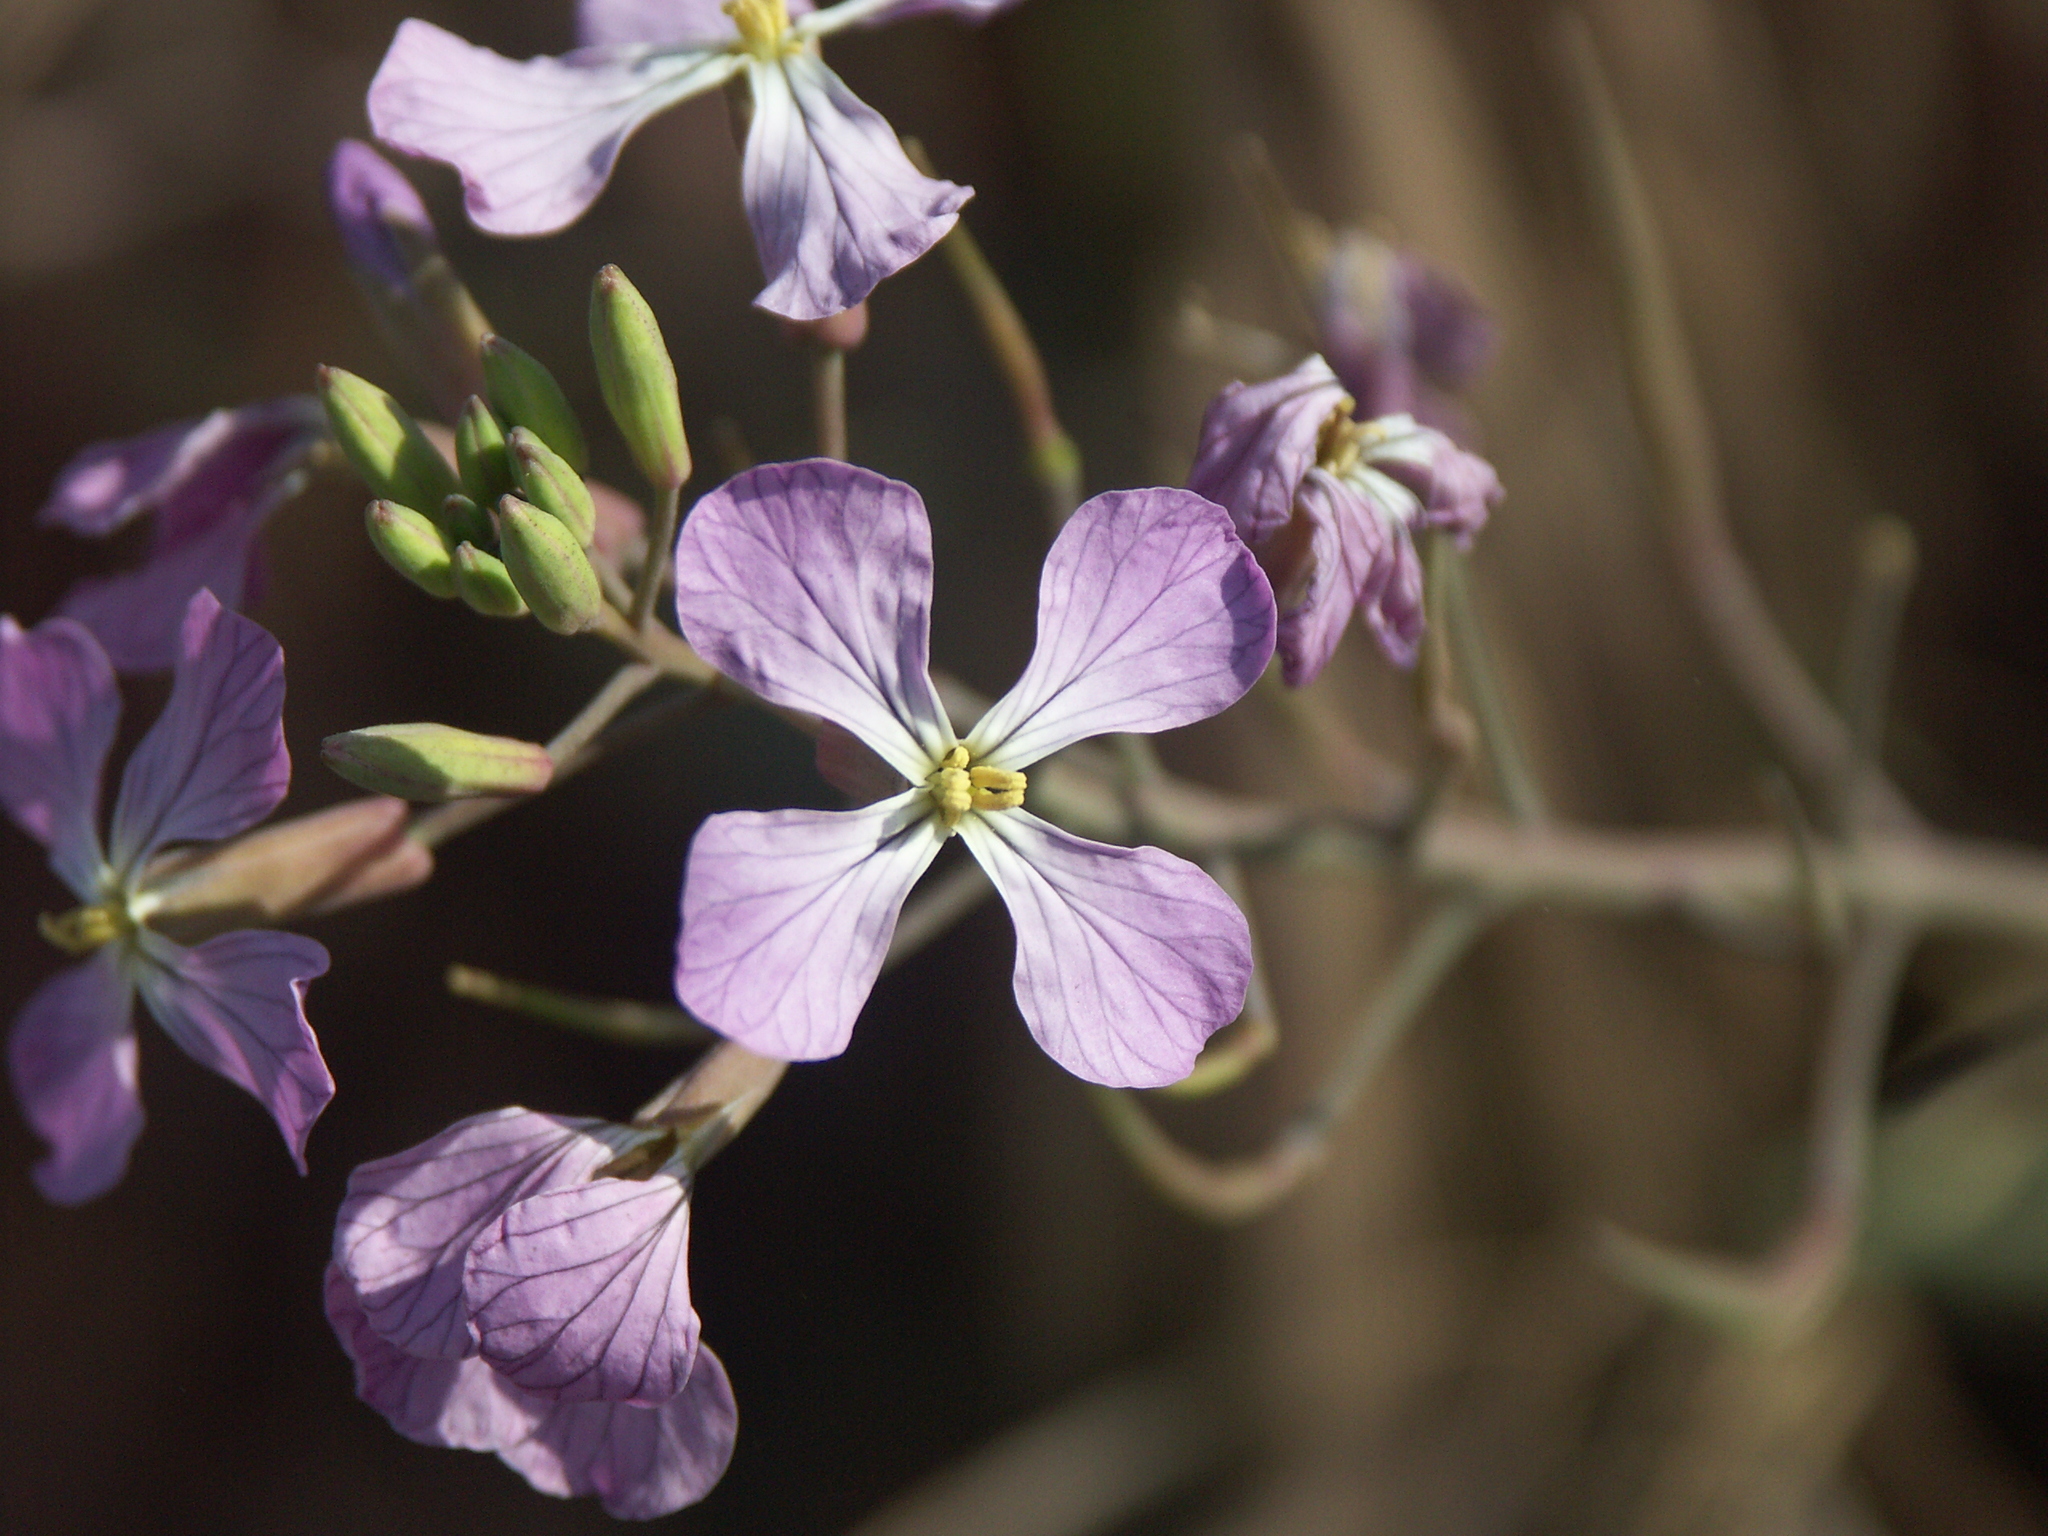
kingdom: Plantae
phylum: Tracheophyta
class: Magnoliopsida
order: Brassicales
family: Brassicaceae
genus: Raphanus
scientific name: Raphanus sativus
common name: Cultivated radish
